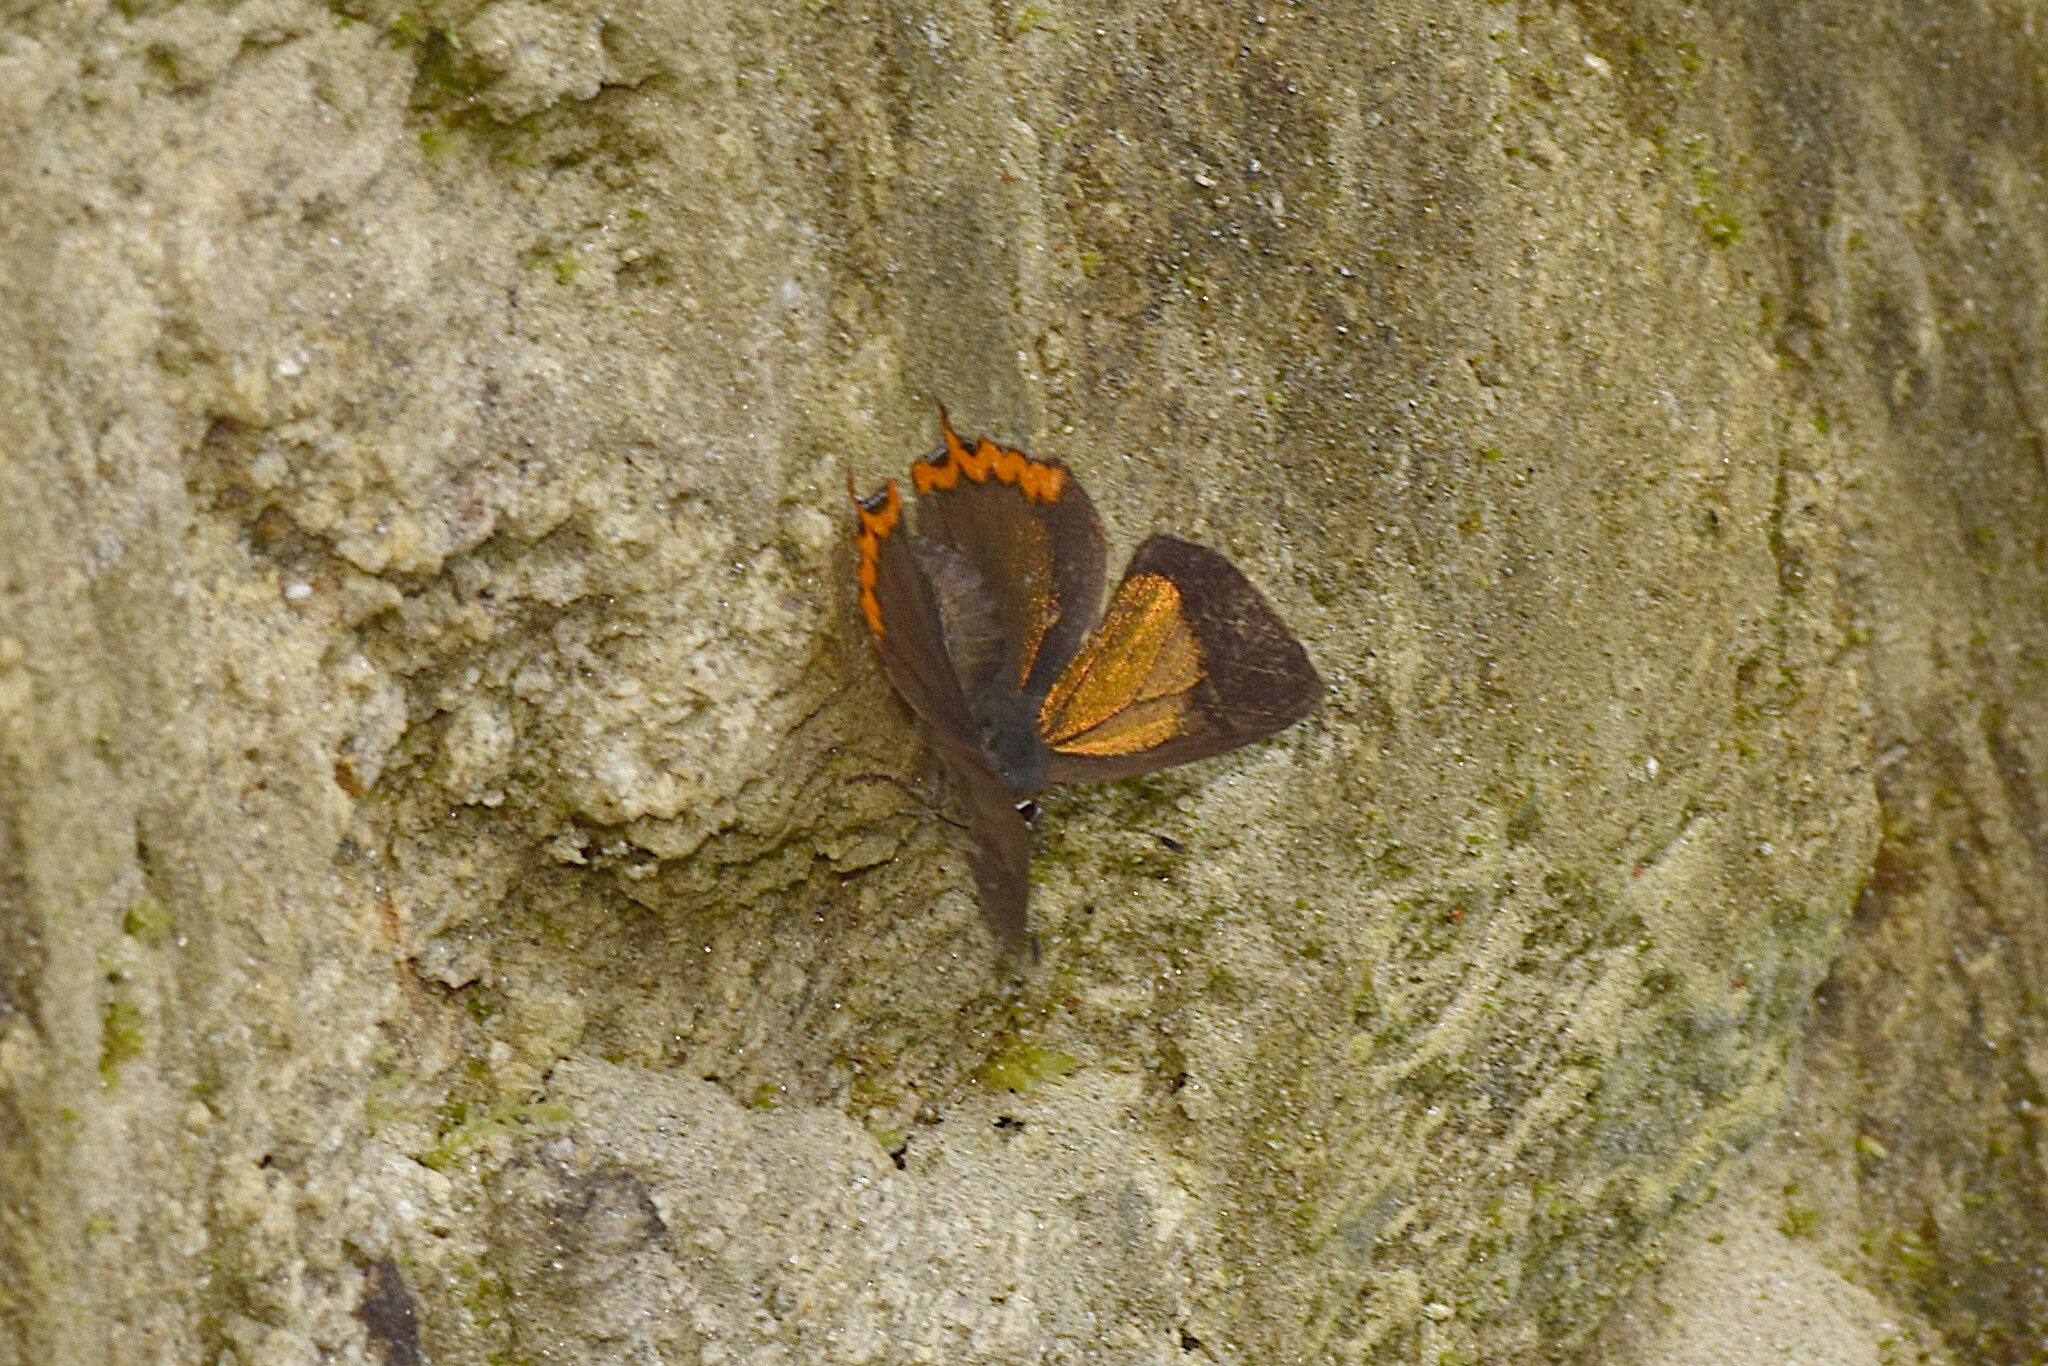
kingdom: Animalia
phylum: Arthropoda
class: Insecta
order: Lepidoptera
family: Lycaenidae
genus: Heliophorus
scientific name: Heliophorus brahma
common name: Golden sapphire
